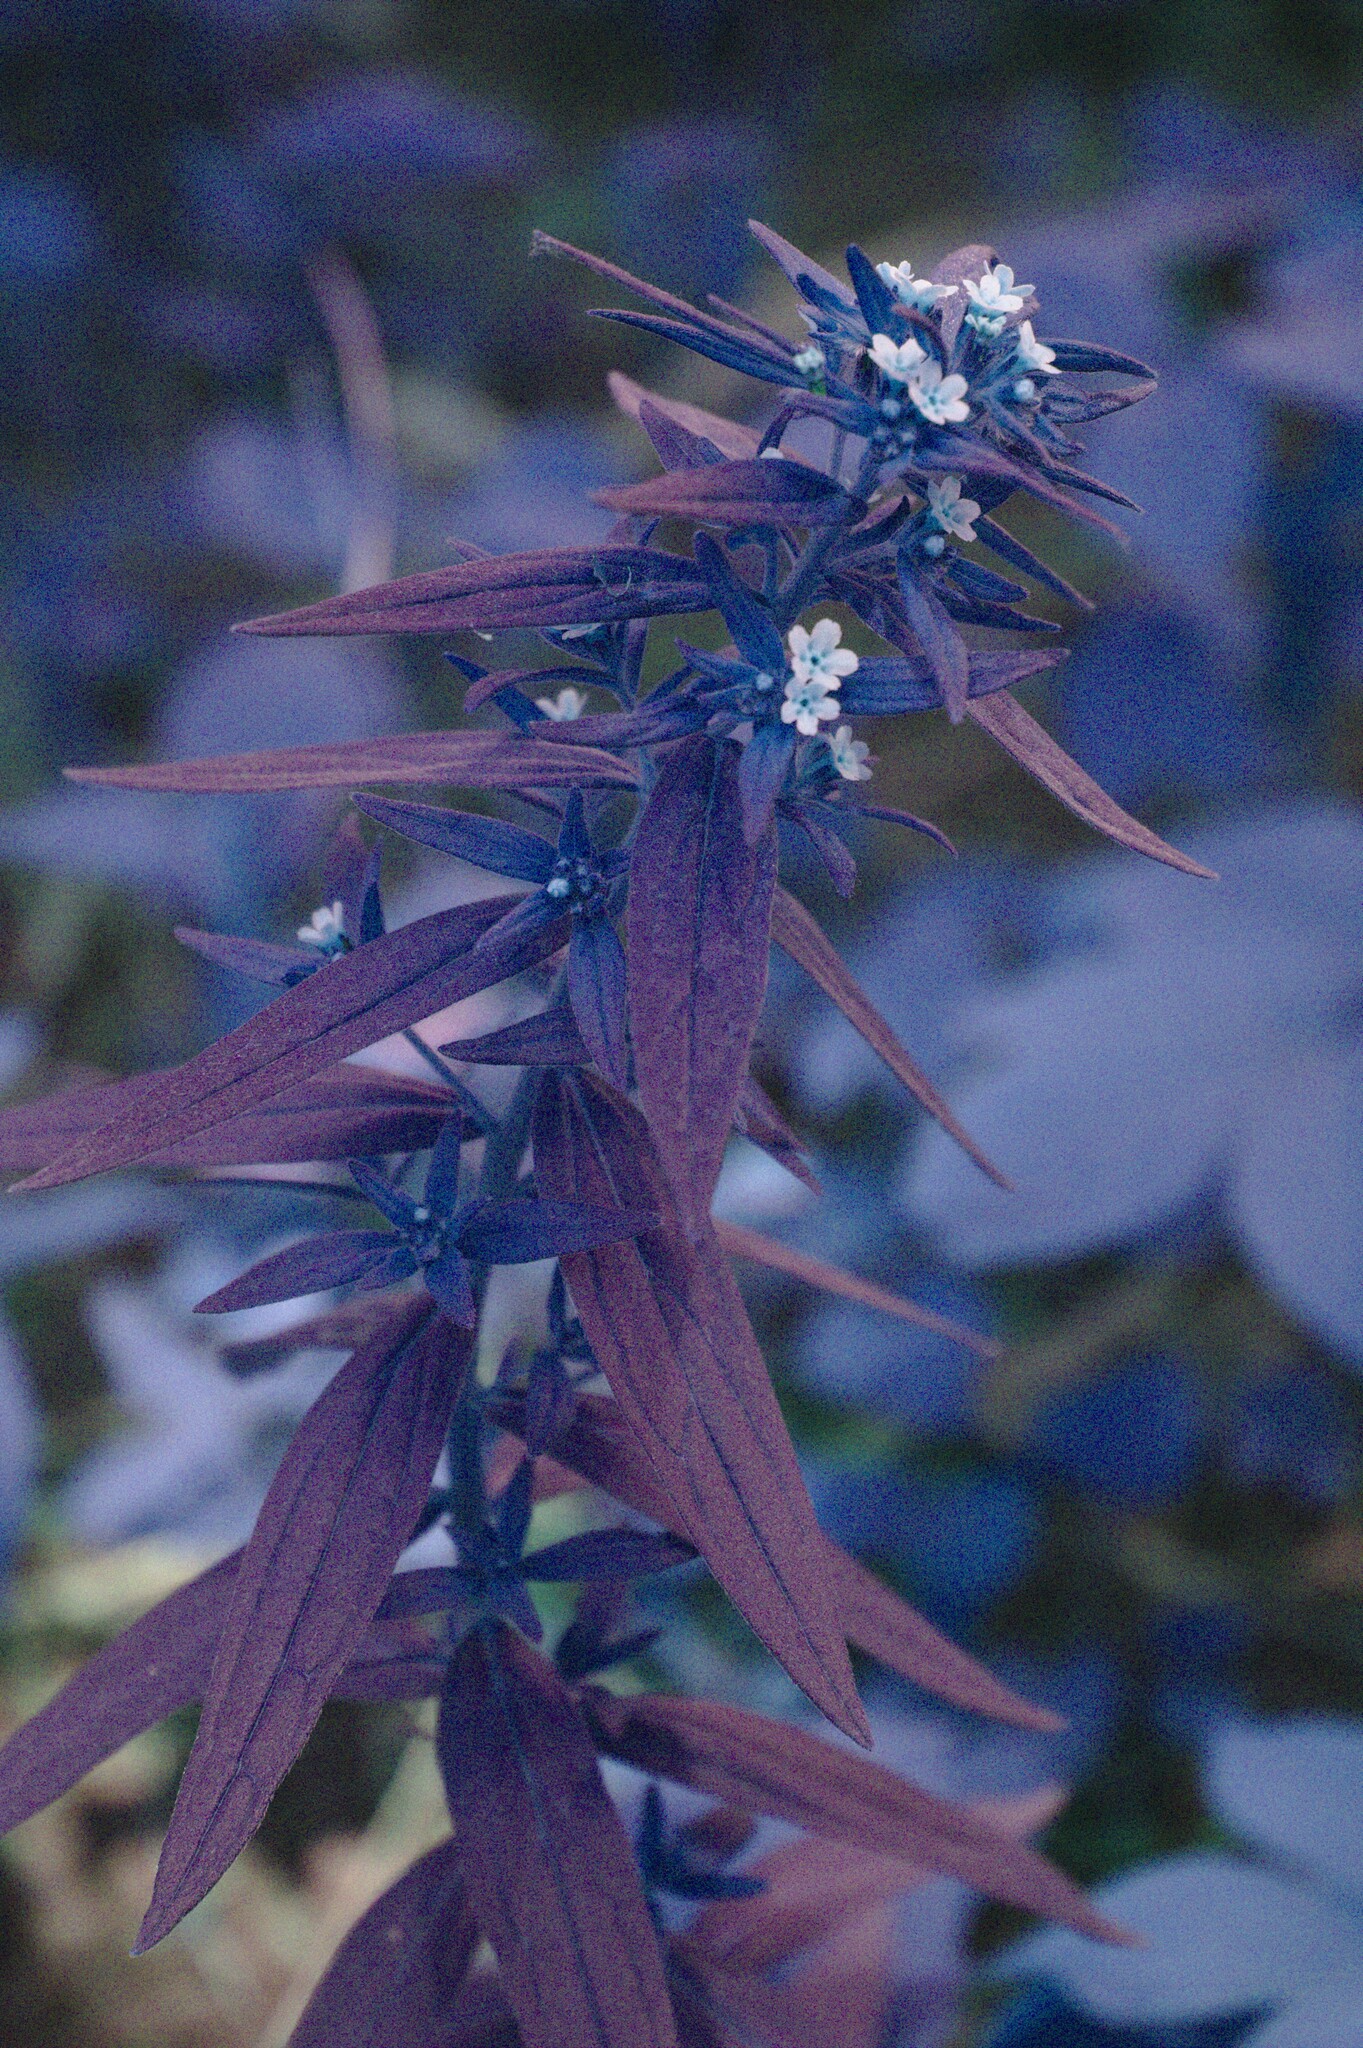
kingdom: Plantae
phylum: Tracheophyta
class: Magnoliopsida
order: Boraginales
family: Boraginaceae
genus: Lithospermum
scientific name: Lithospermum officinale
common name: Common gromwell
